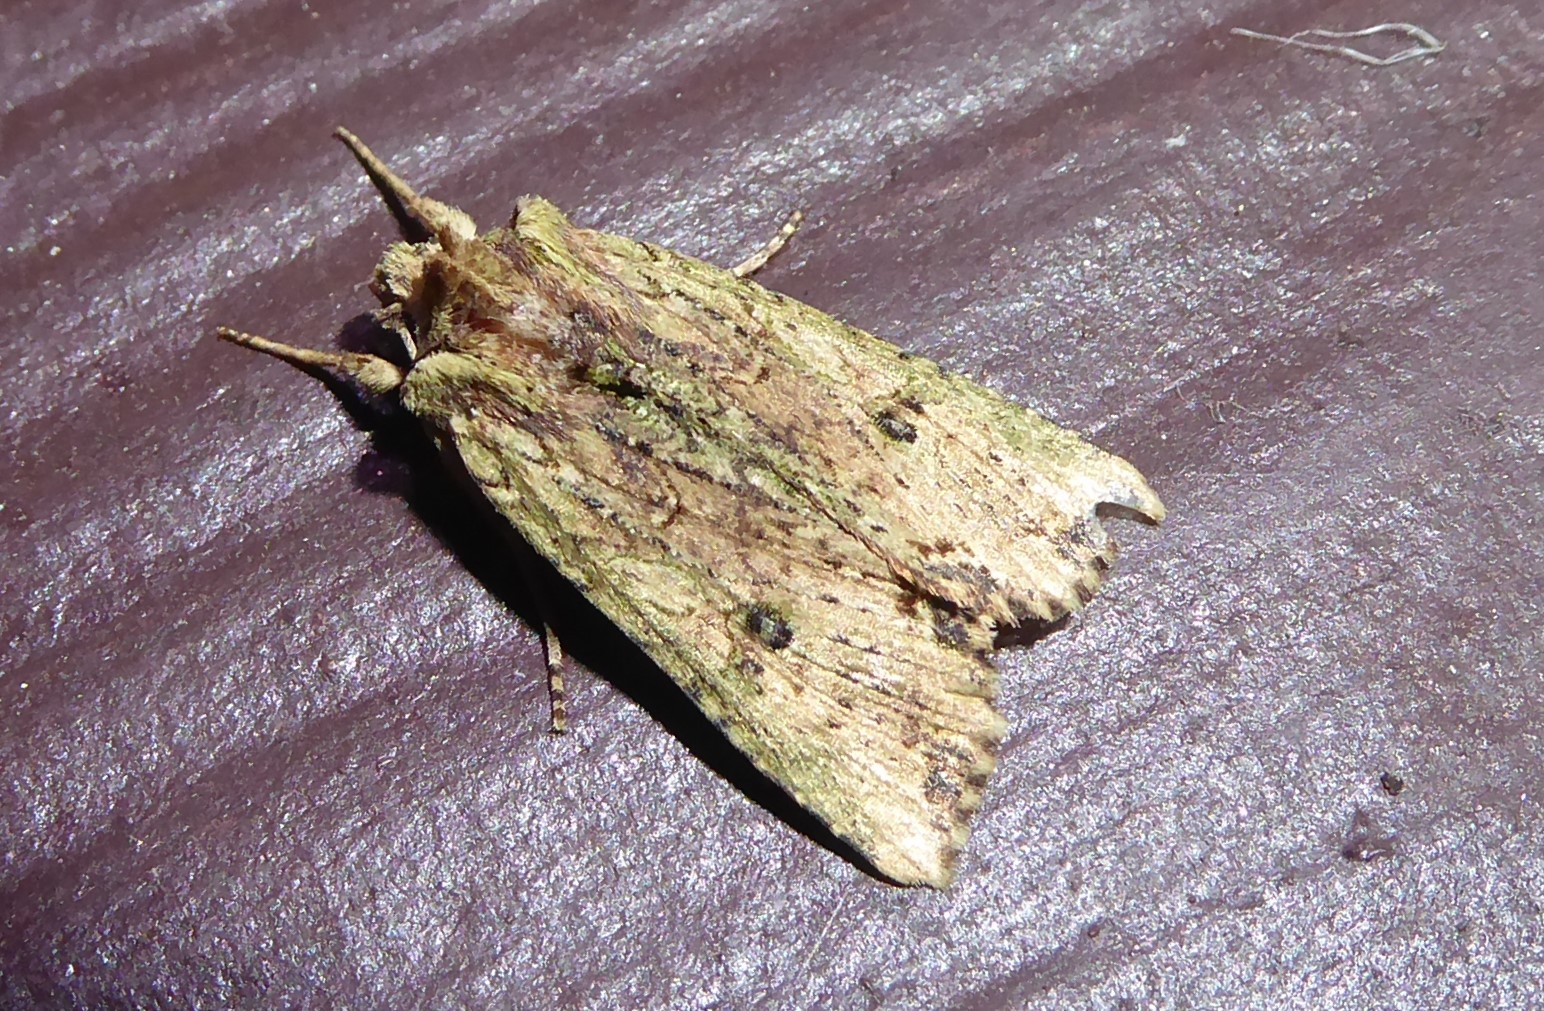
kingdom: Animalia
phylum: Arthropoda
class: Insecta
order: Lepidoptera
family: Noctuidae
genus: Meterana
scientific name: Meterana coeleno
